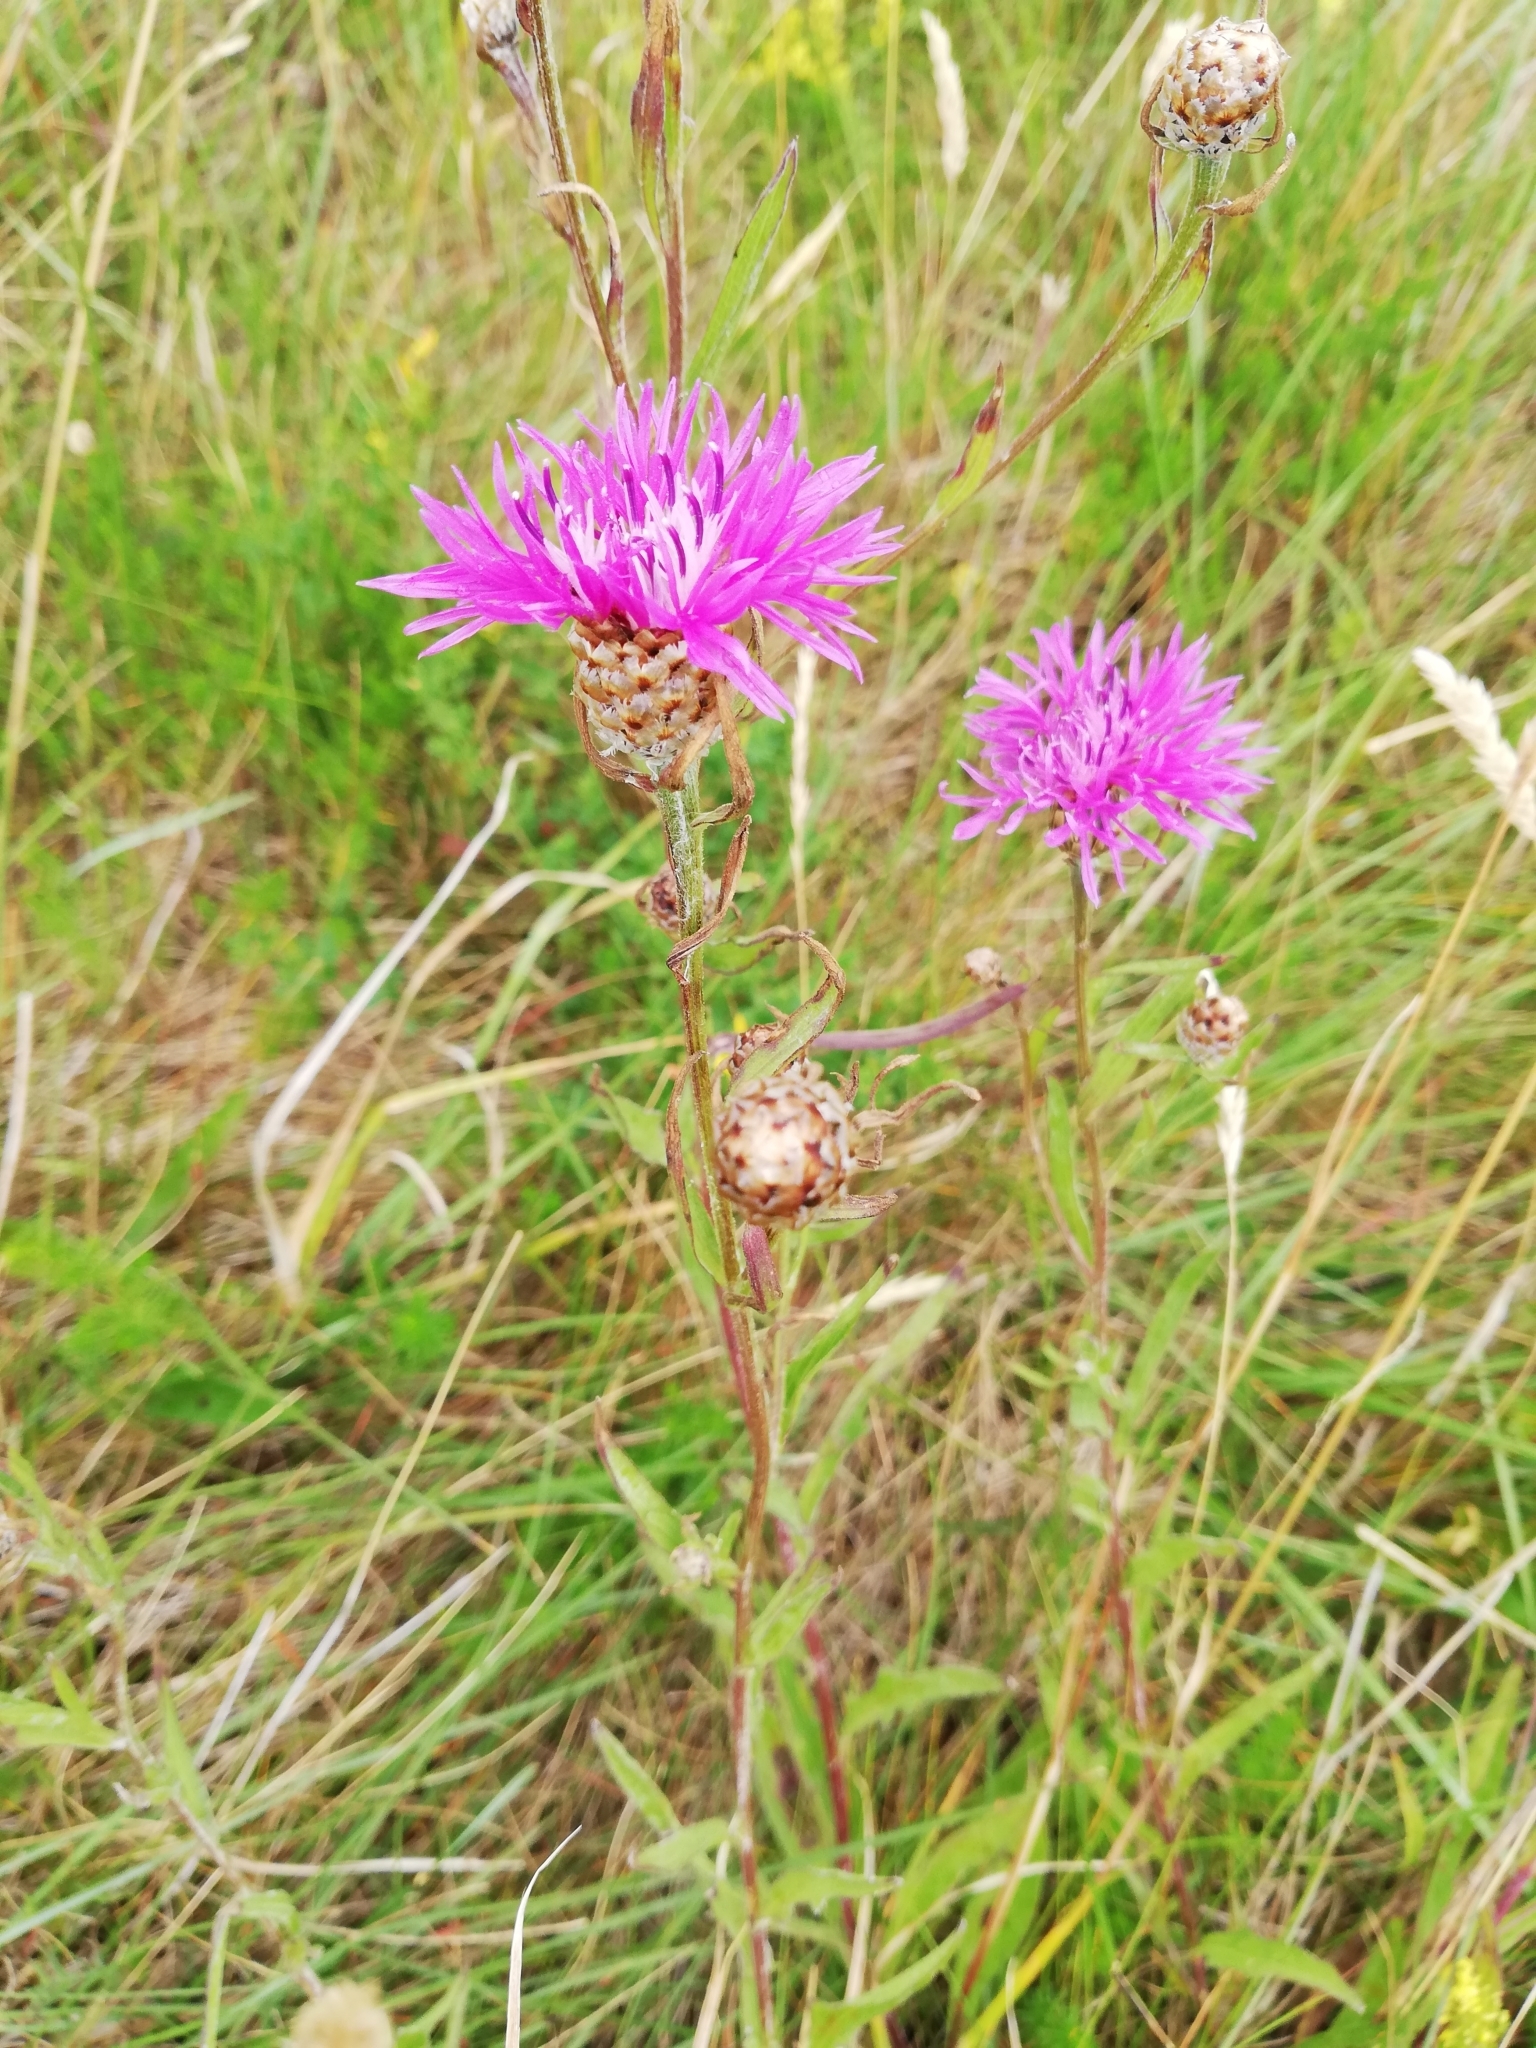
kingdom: Plantae
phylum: Tracheophyta
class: Magnoliopsida
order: Asterales
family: Asteraceae
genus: Centaurea
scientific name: Centaurea jacea
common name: Brown knapweed
